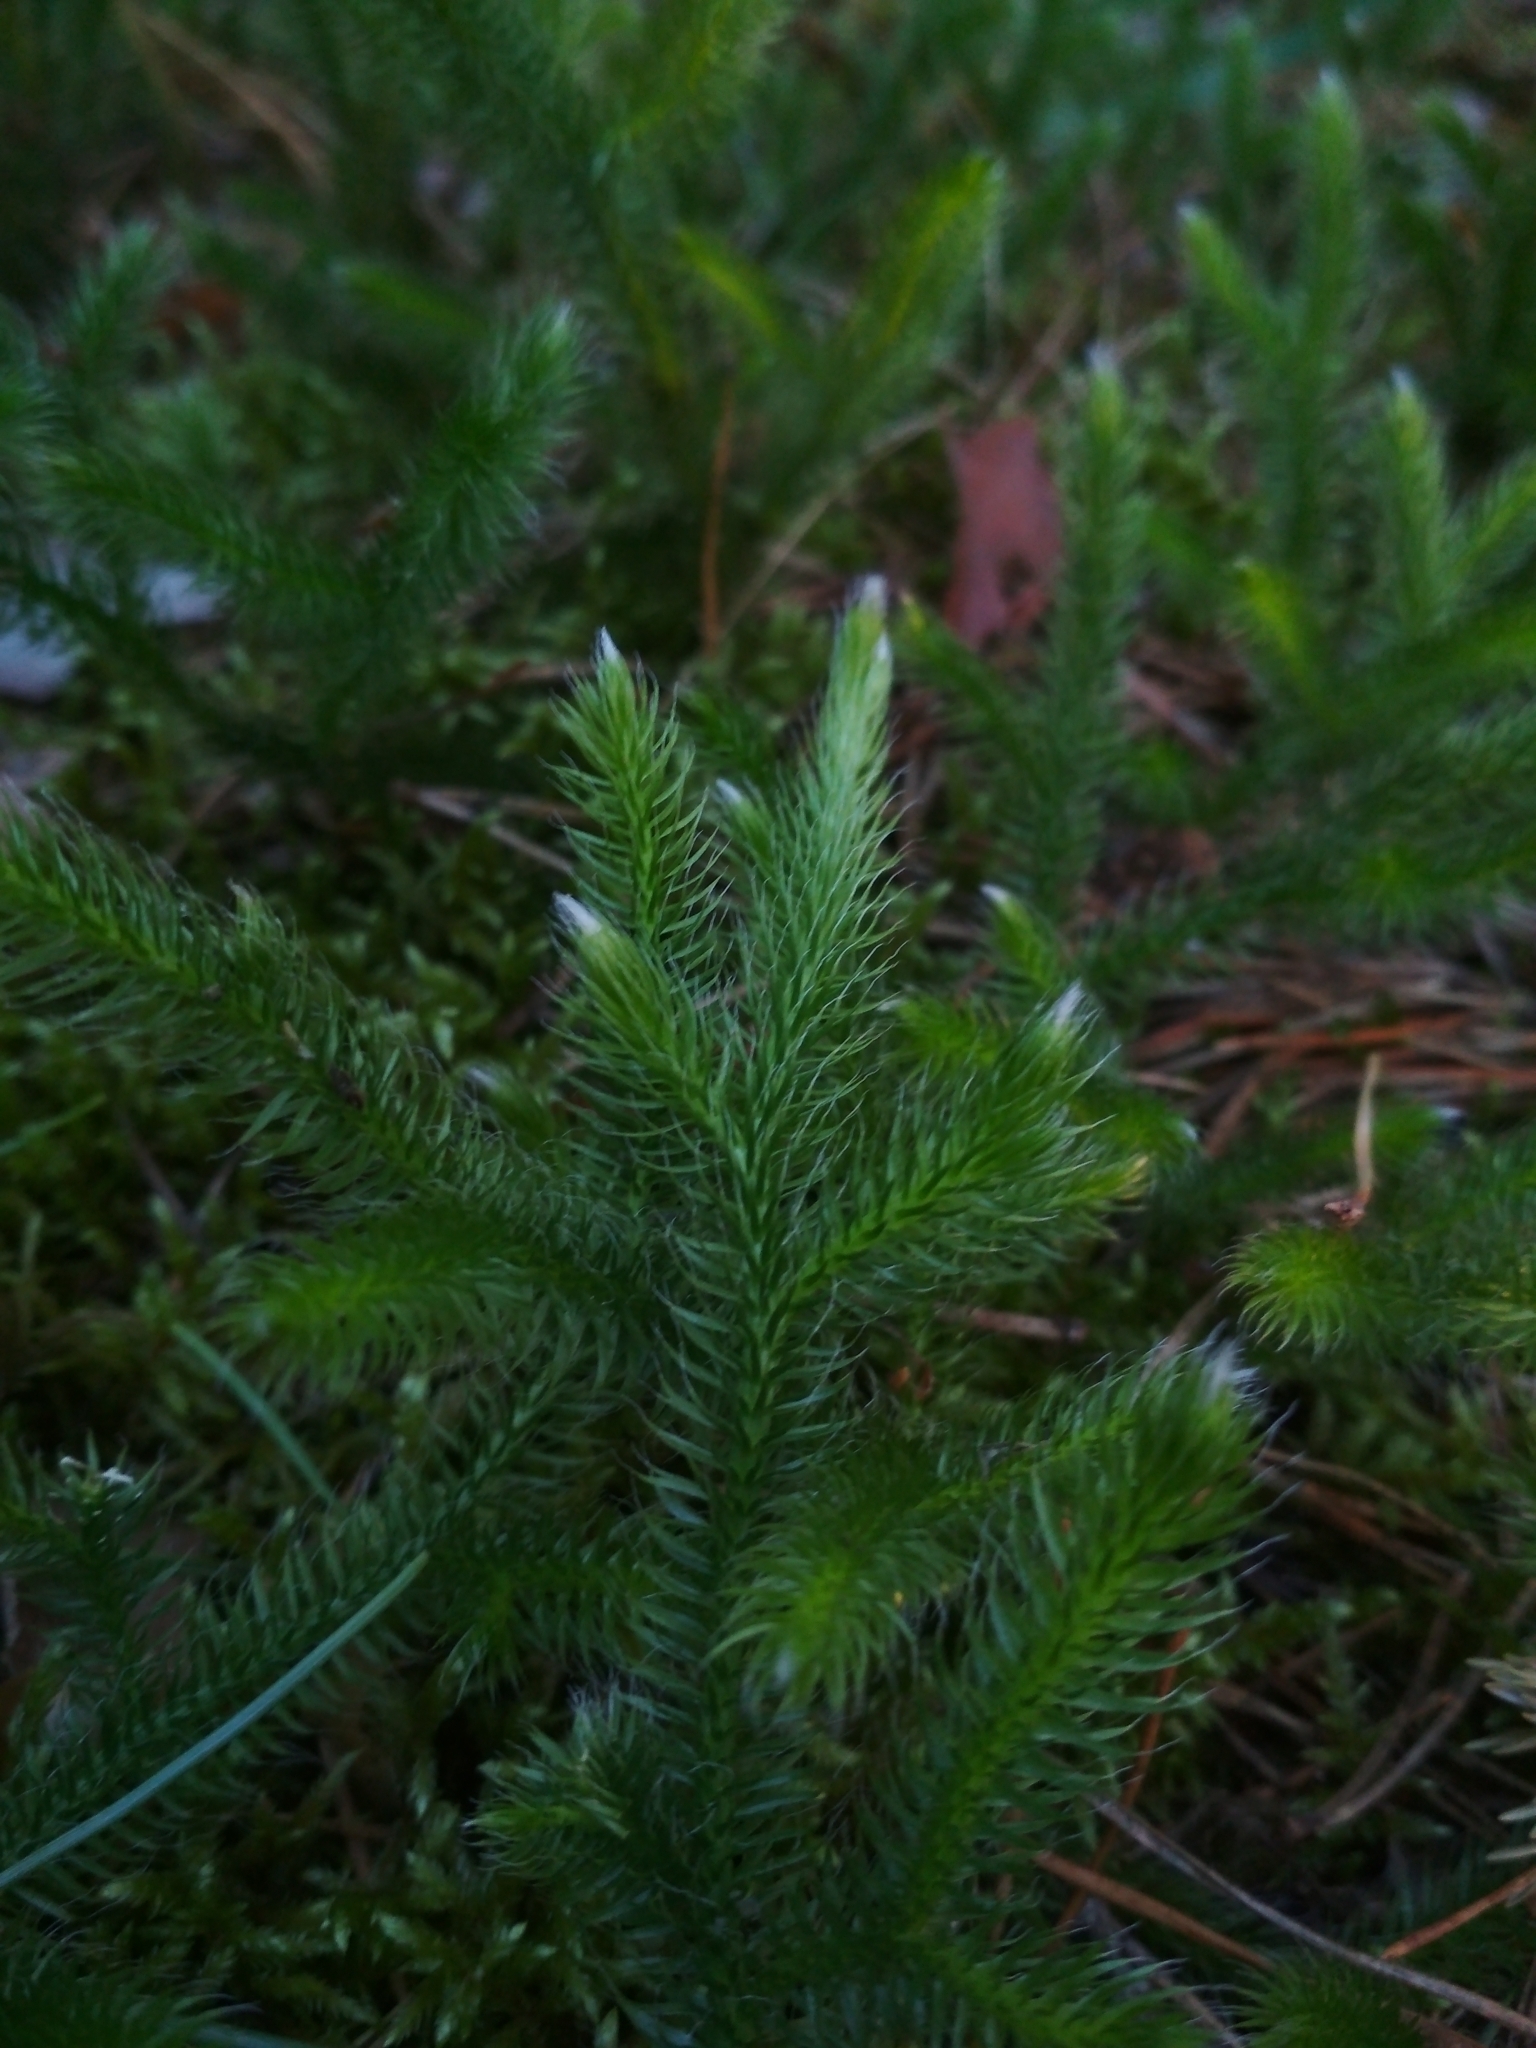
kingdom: Plantae
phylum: Tracheophyta
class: Lycopodiopsida
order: Lycopodiales
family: Lycopodiaceae
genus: Lycopodium
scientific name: Lycopodium clavatum
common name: Stag's-horn clubmoss
